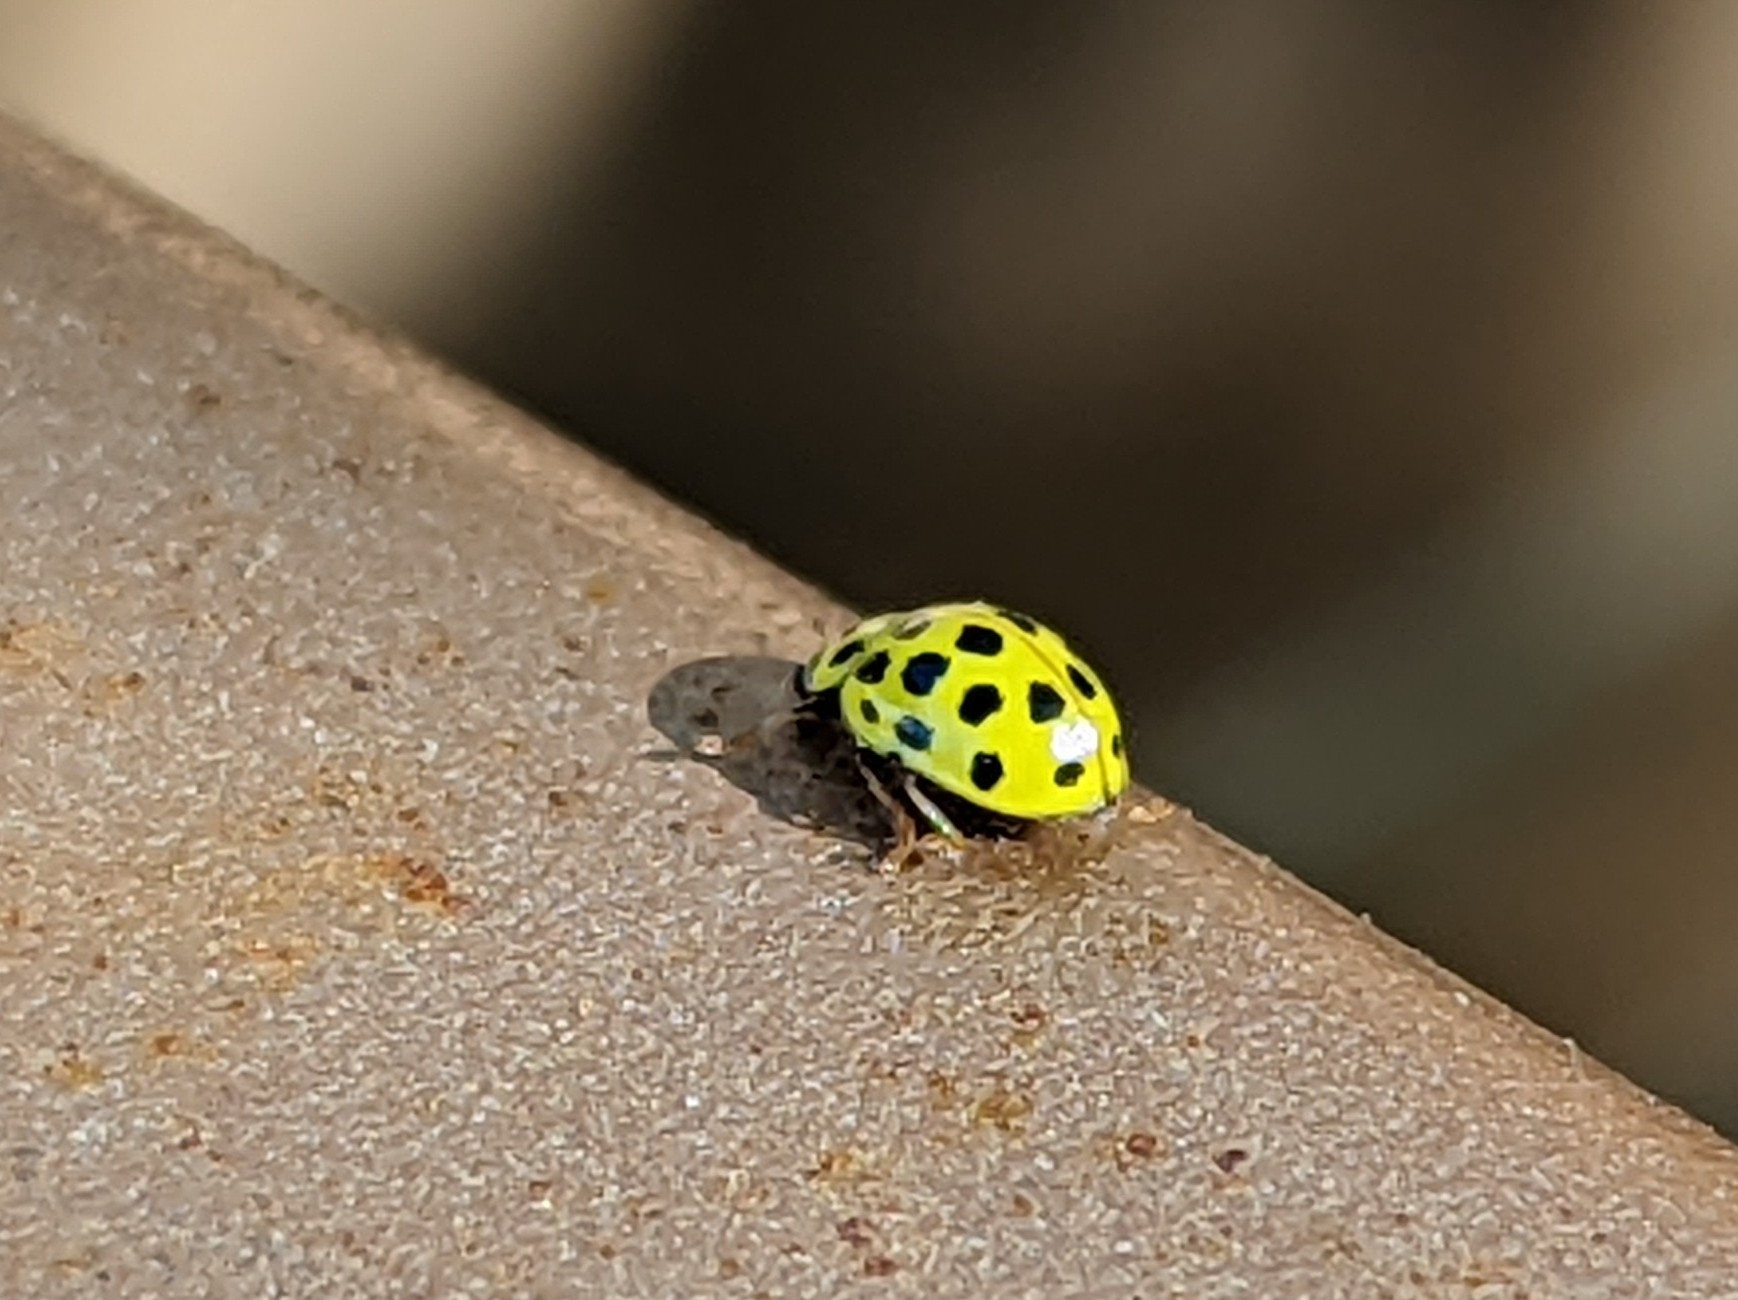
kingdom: Animalia
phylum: Arthropoda
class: Insecta
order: Coleoptera
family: Coccinellidae
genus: Psyllobora
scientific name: Psyllobora vigintiduopunctata
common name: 22-spot ladybird
